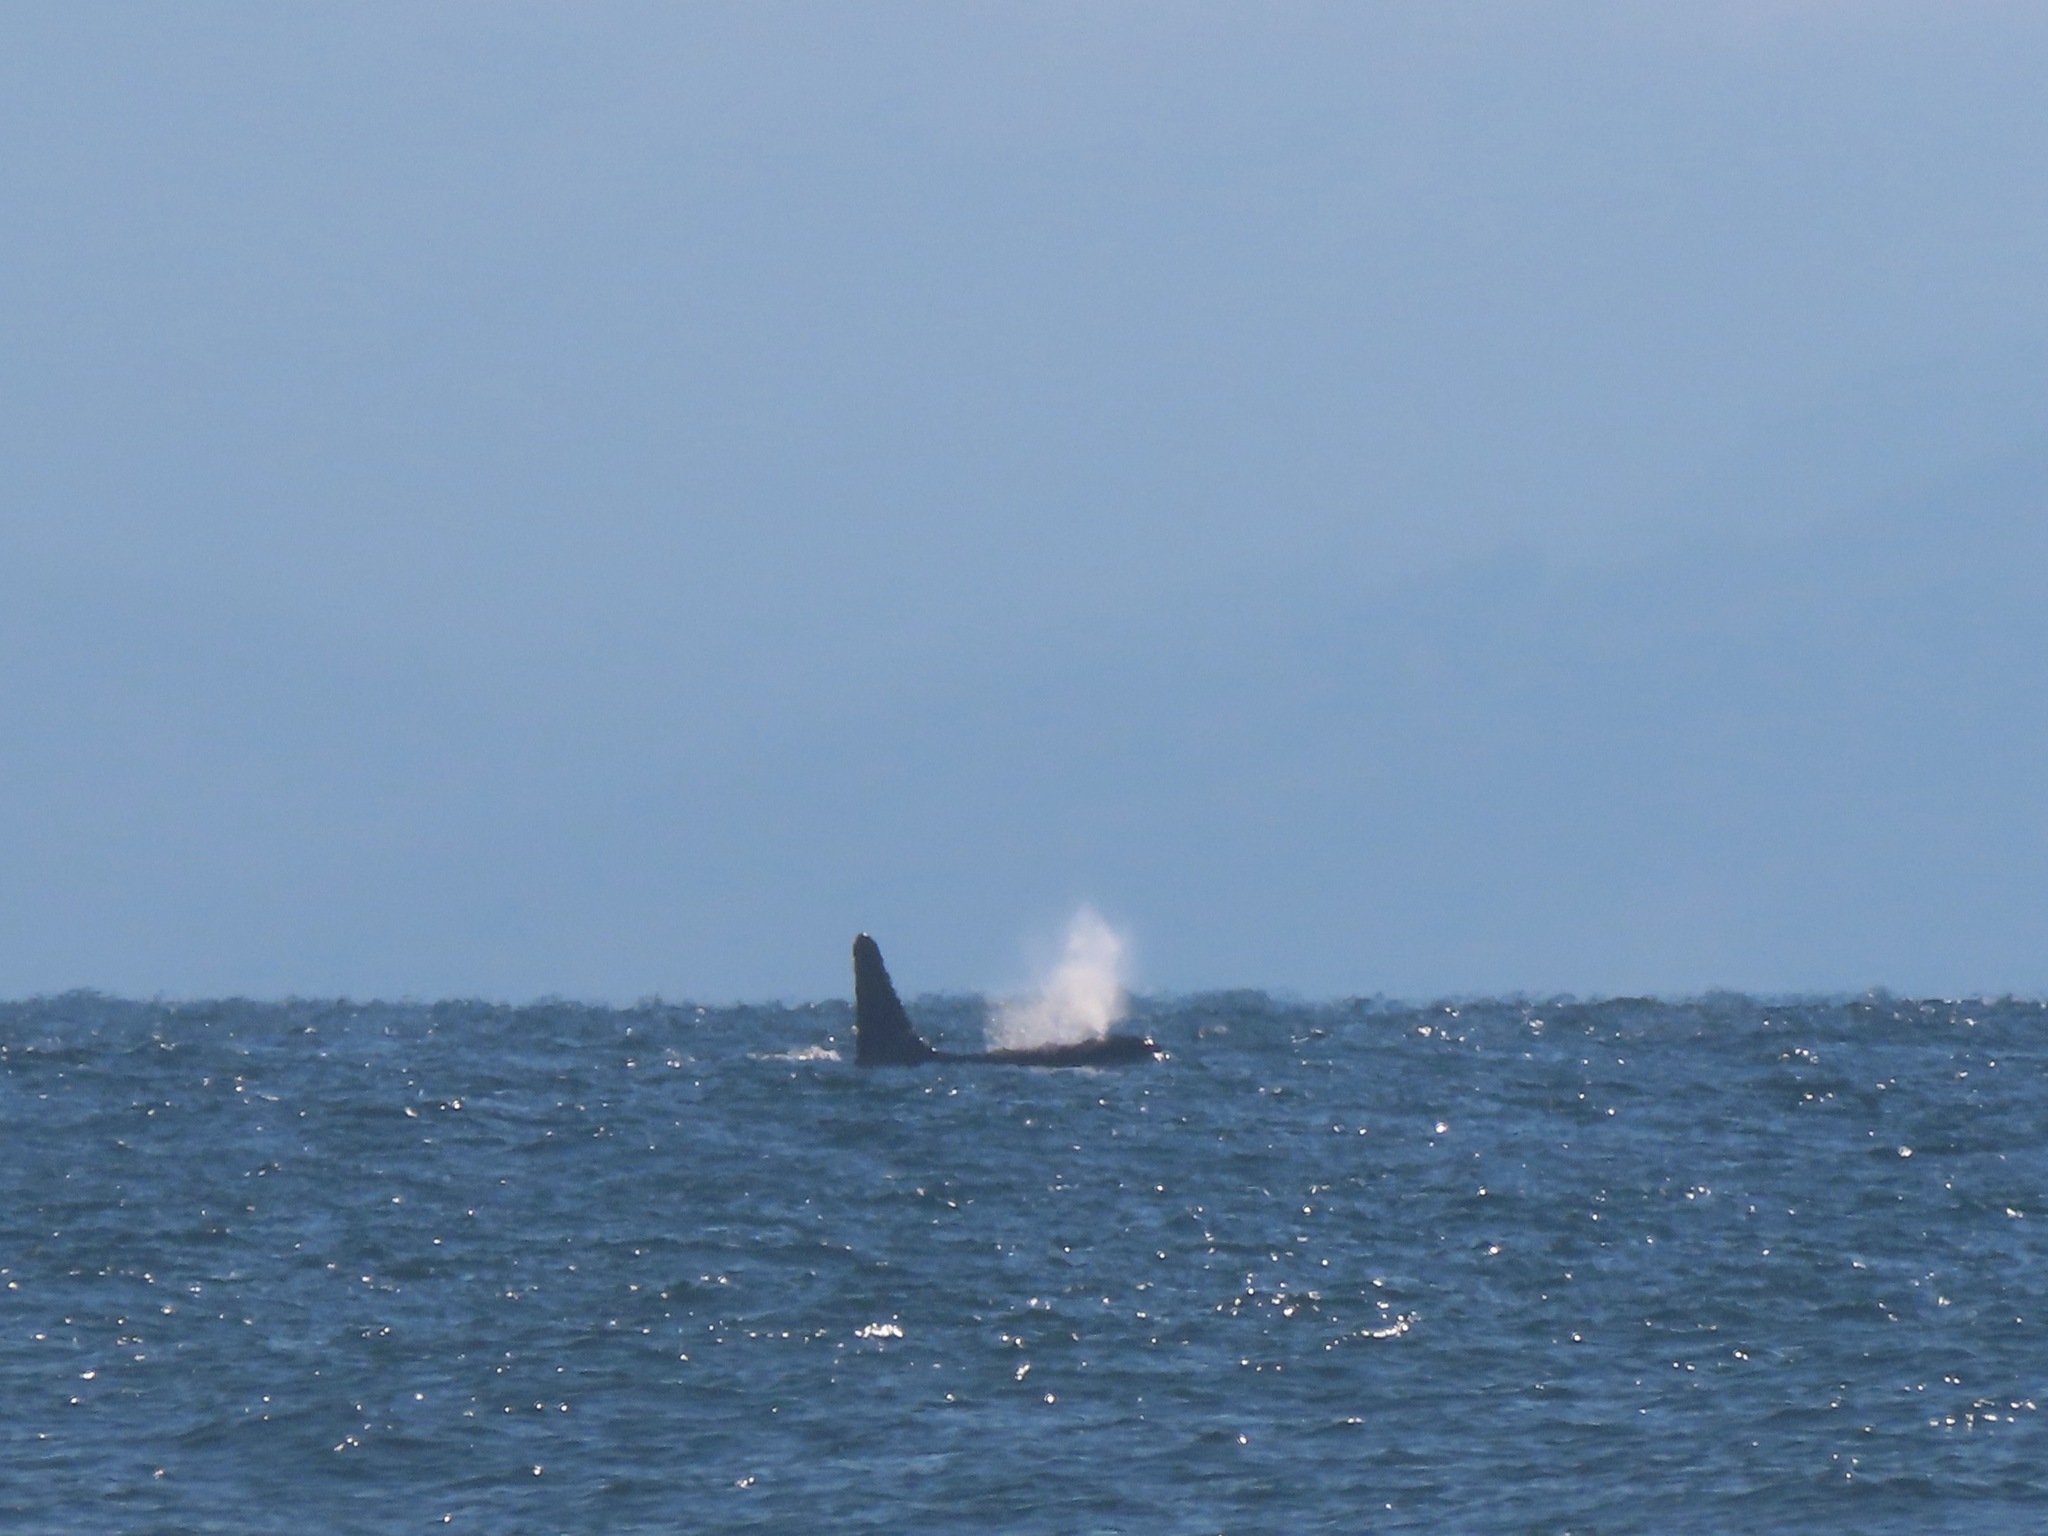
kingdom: Animalia
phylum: Chordata
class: Mammalia
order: Cetacea
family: Delphinidae
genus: Orcinus
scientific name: Orcinus orca
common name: Killer whale
